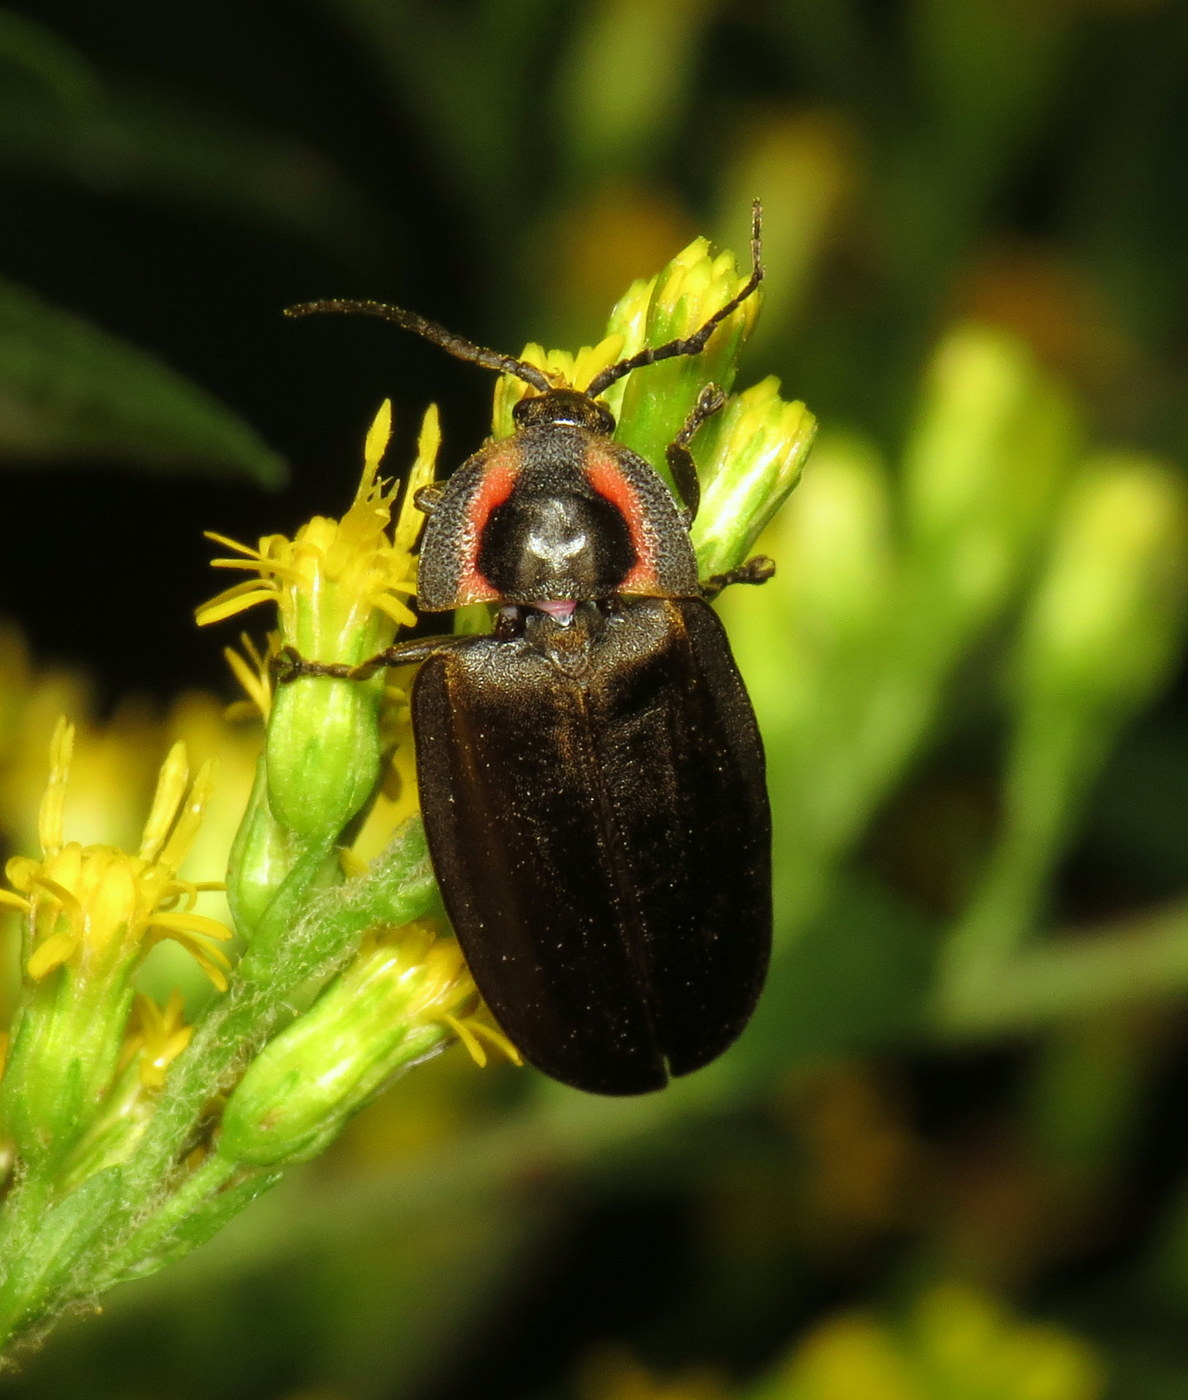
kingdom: Animalia
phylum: Arthropoda
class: Insecta
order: Coleoptera
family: Lampyridae
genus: Photinus
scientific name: Photinus corrusca
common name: Winter firefly
